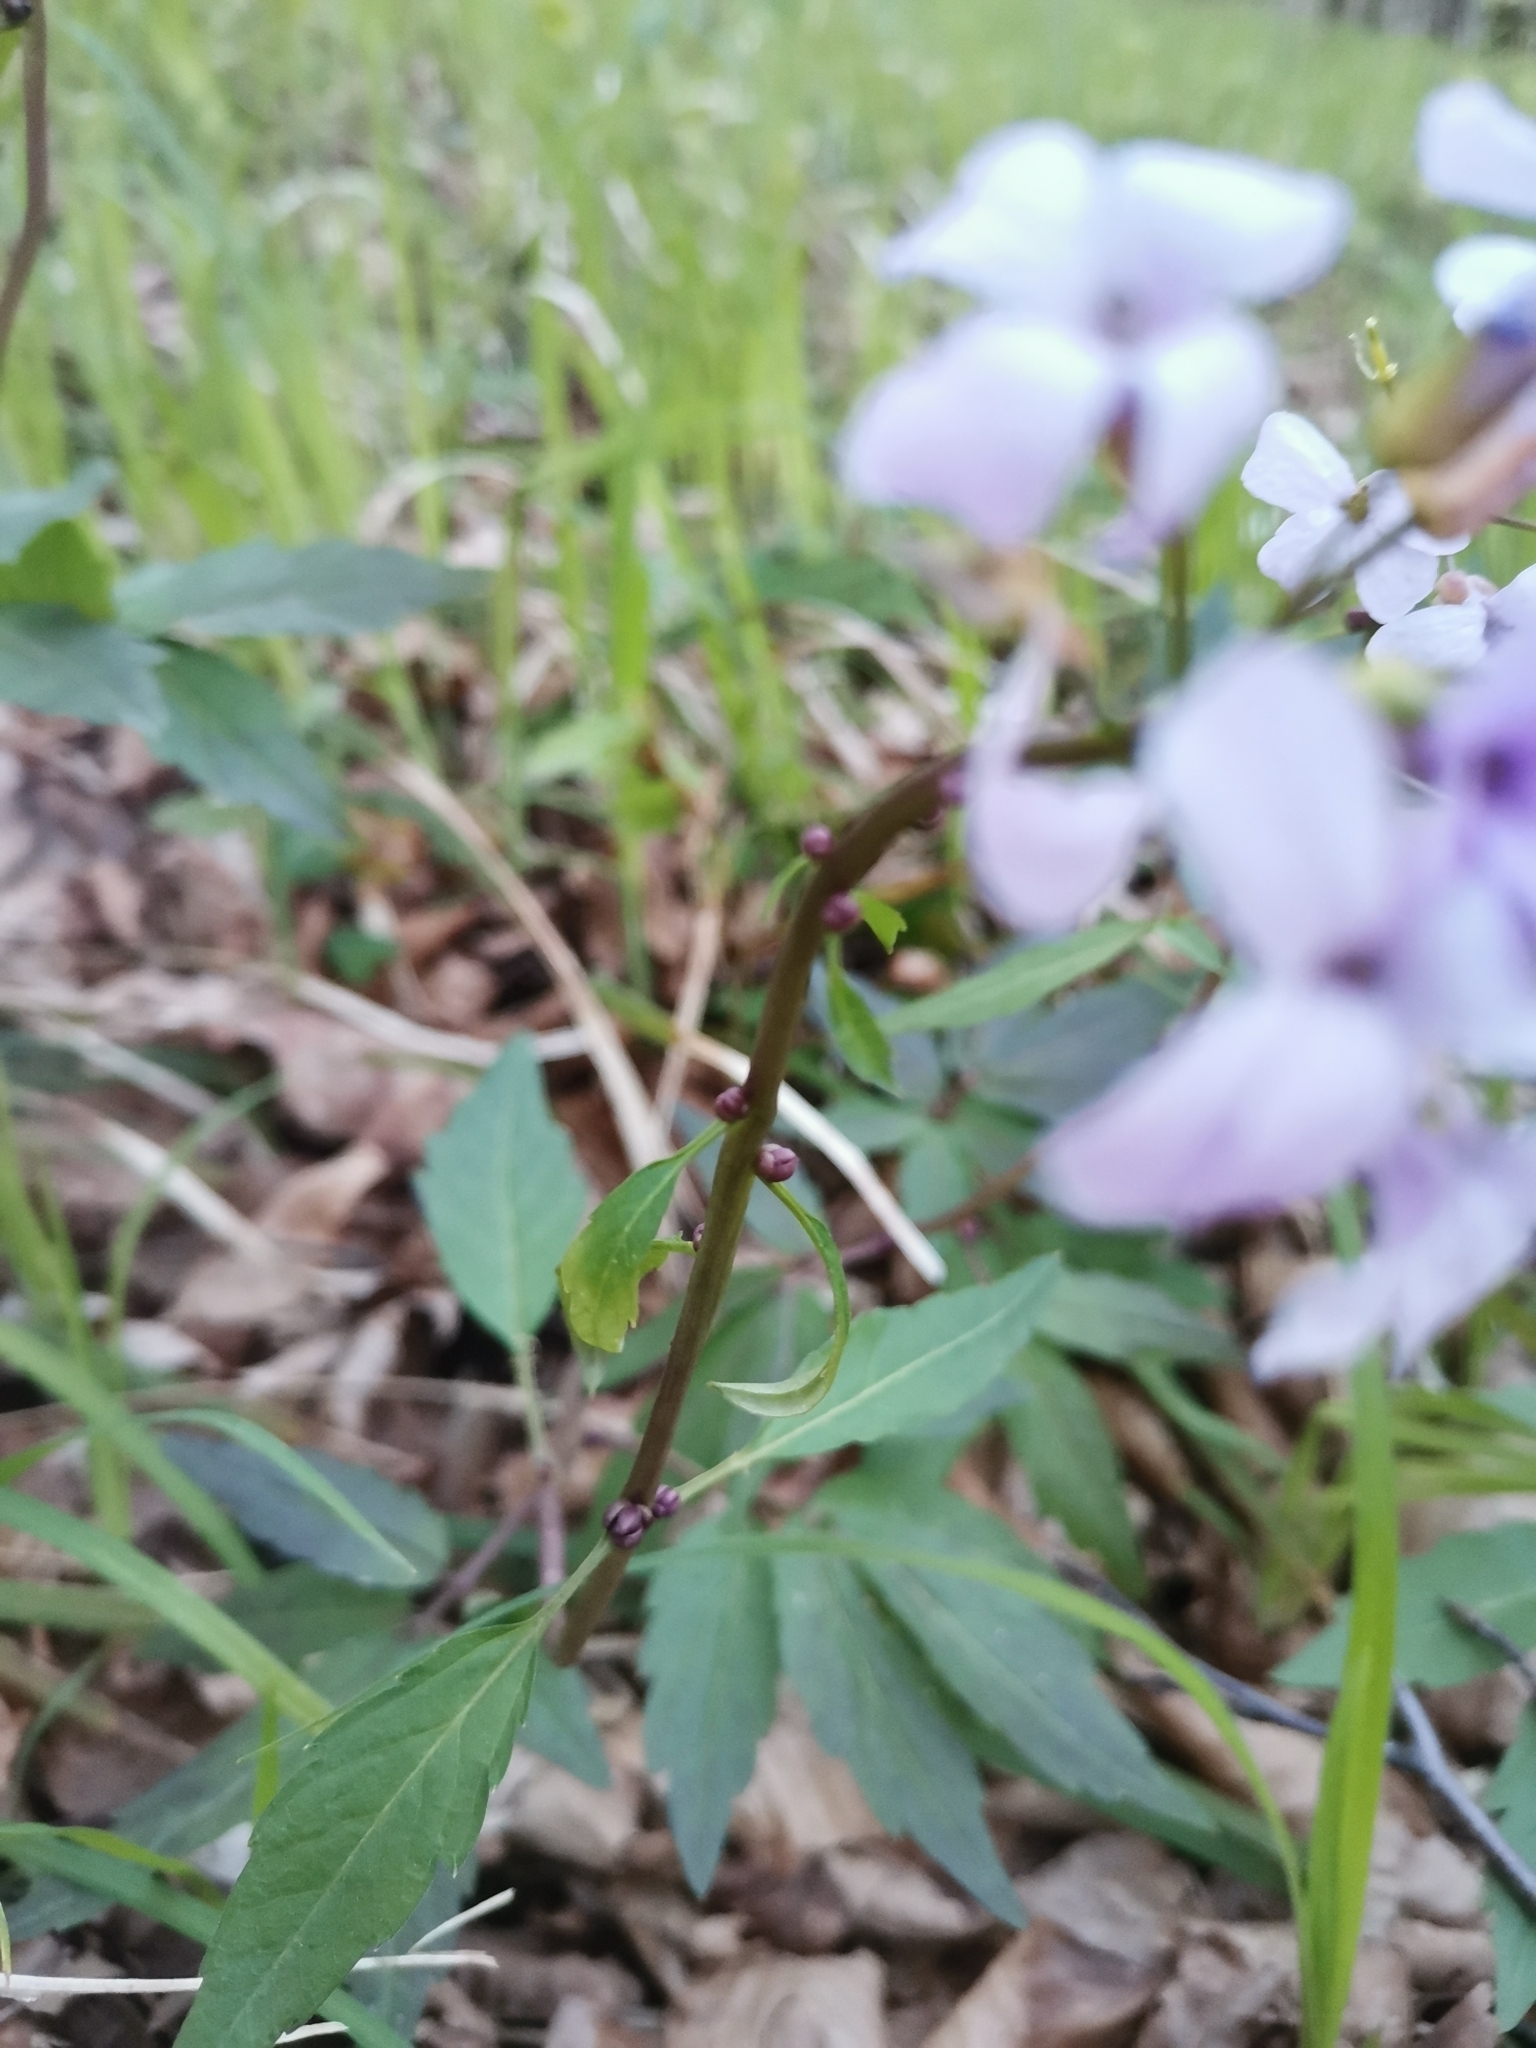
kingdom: Plantae
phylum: Tracheophyta
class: Magnoliopsida
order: Brassicales
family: Brassicaceae
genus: Cardamine
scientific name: Cardamine bulbifera
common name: Coralroot bittercress
